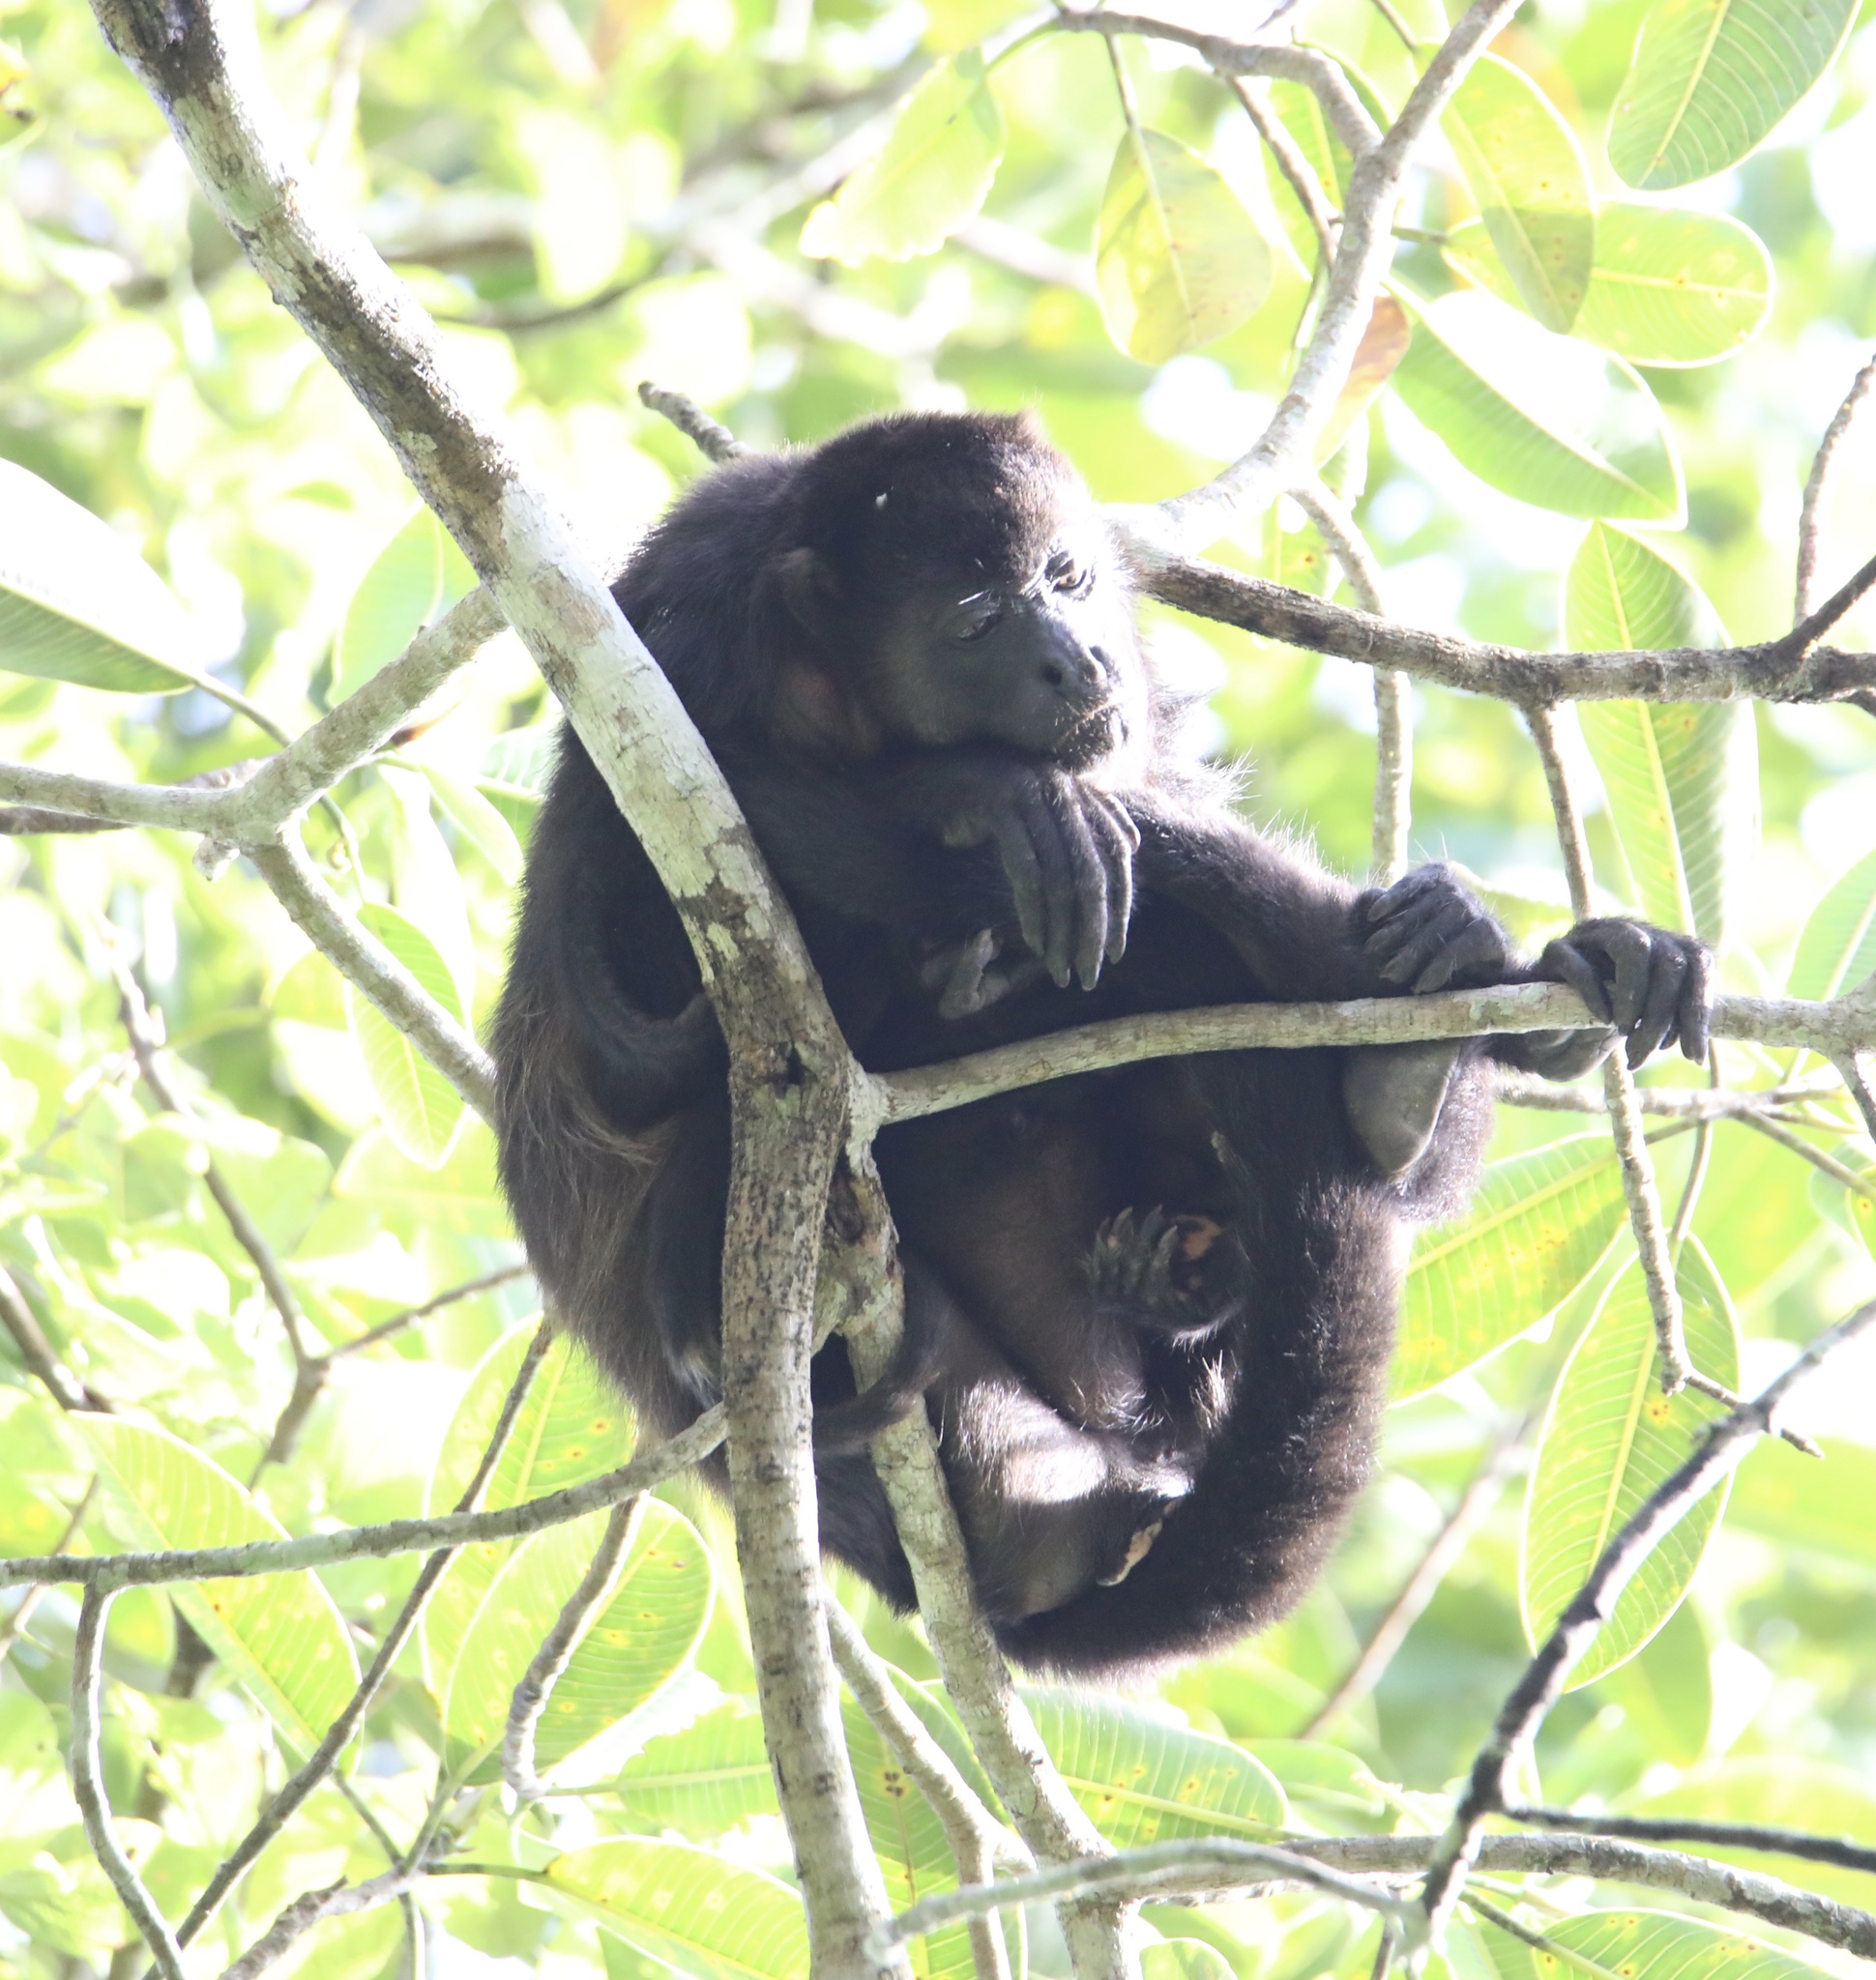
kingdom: Animalia
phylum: Chordata
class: Mammalia
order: Primates
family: Atelidae
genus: Alouatta
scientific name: Alouatta palliata
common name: Mantled howler
